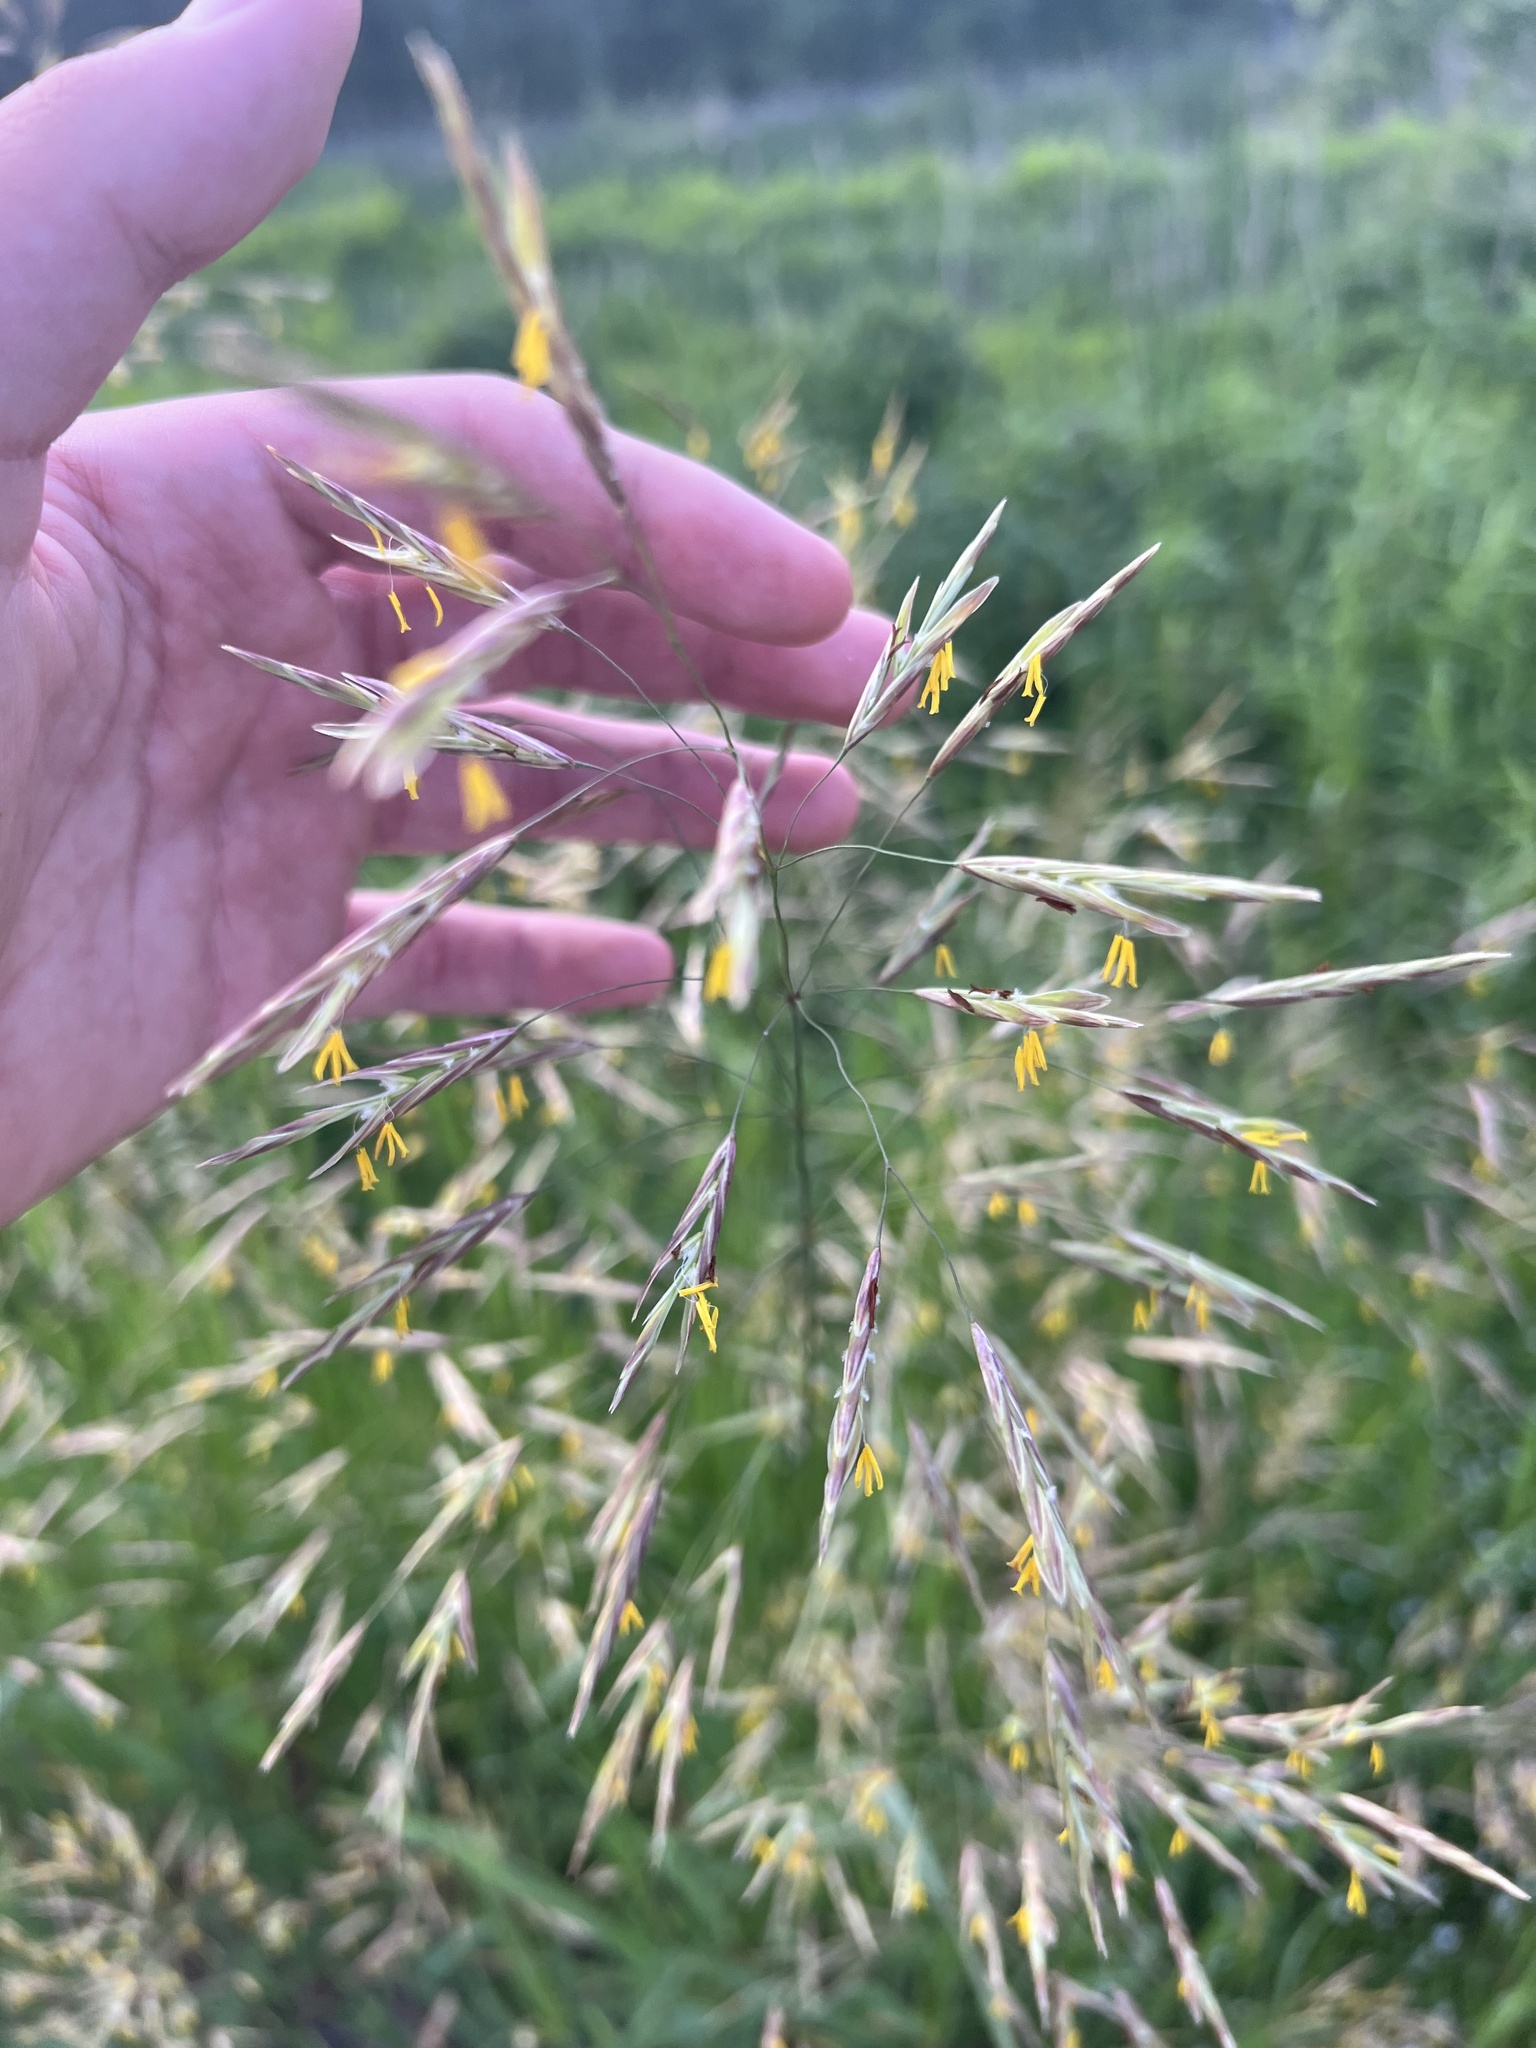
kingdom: Plantae
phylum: Tracheophyta
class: Liliopsida
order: Poales
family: Poaceae
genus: Bromus
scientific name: Bromus inermis
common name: Smooth brome
